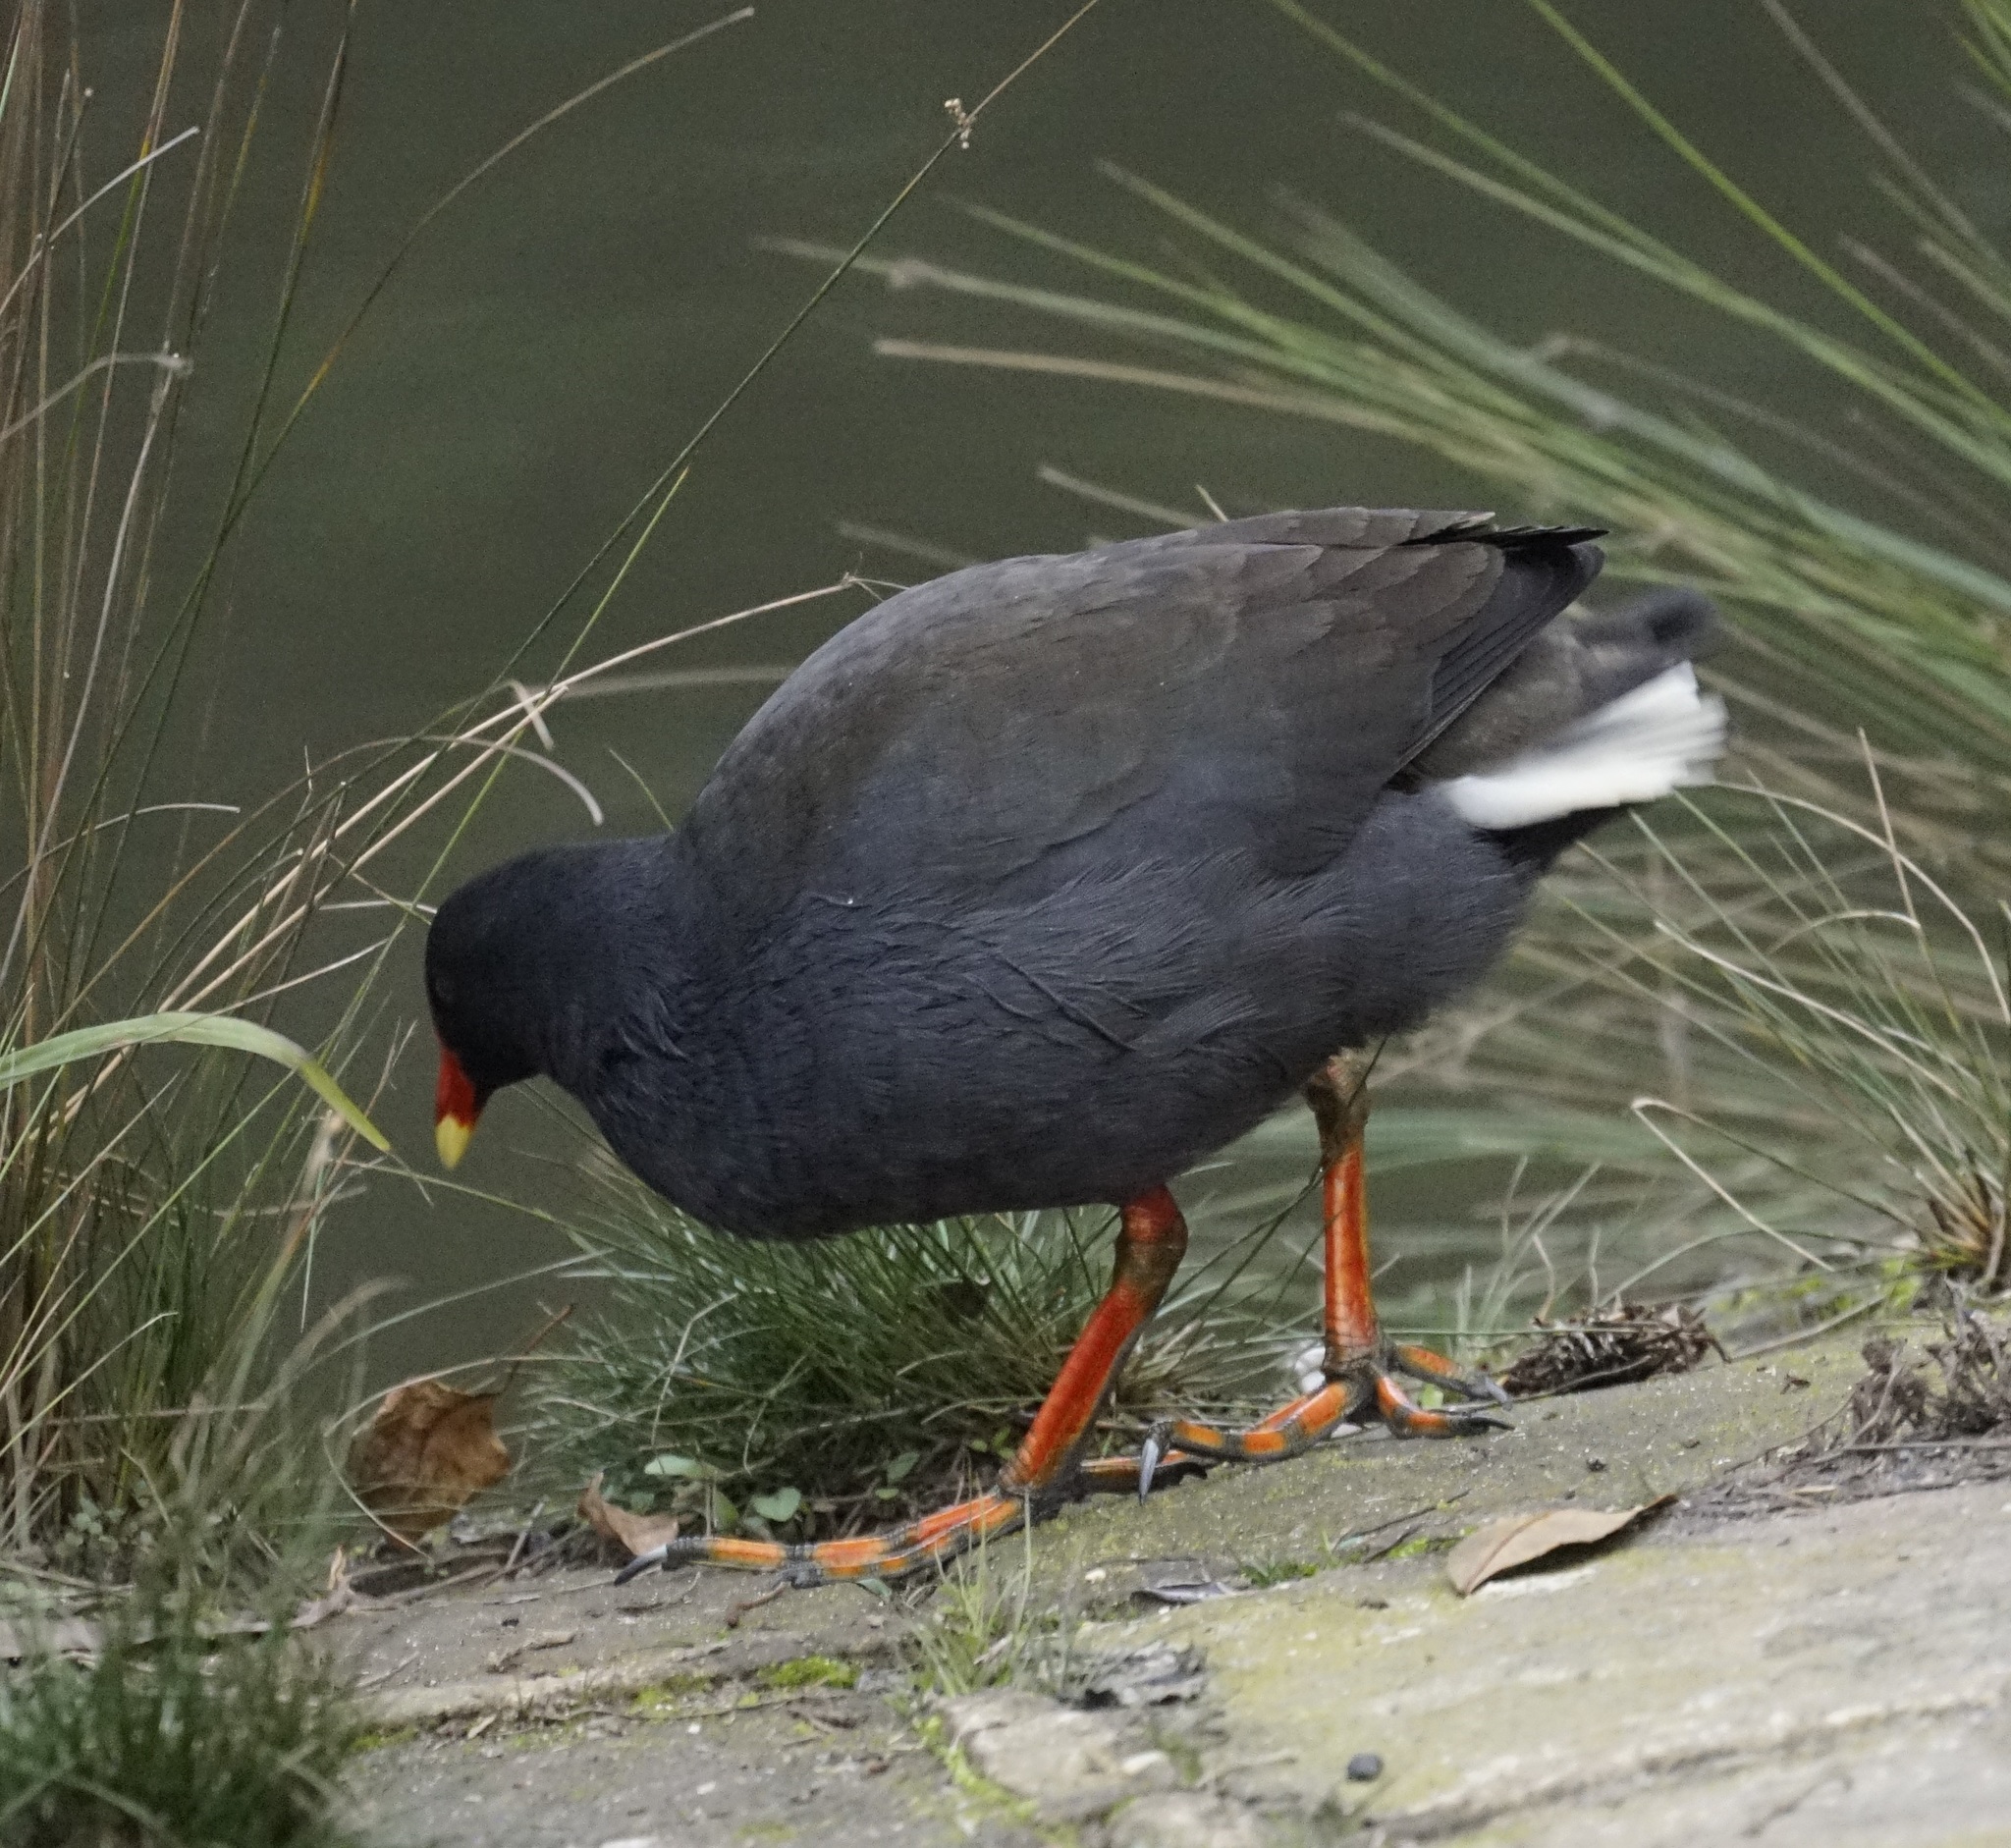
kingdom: Animalia
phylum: Chordata
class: Aves
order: Gruiformes
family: Rallidae
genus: Gallinula
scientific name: Gallinula tenebrosa
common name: Dusky moorhen
